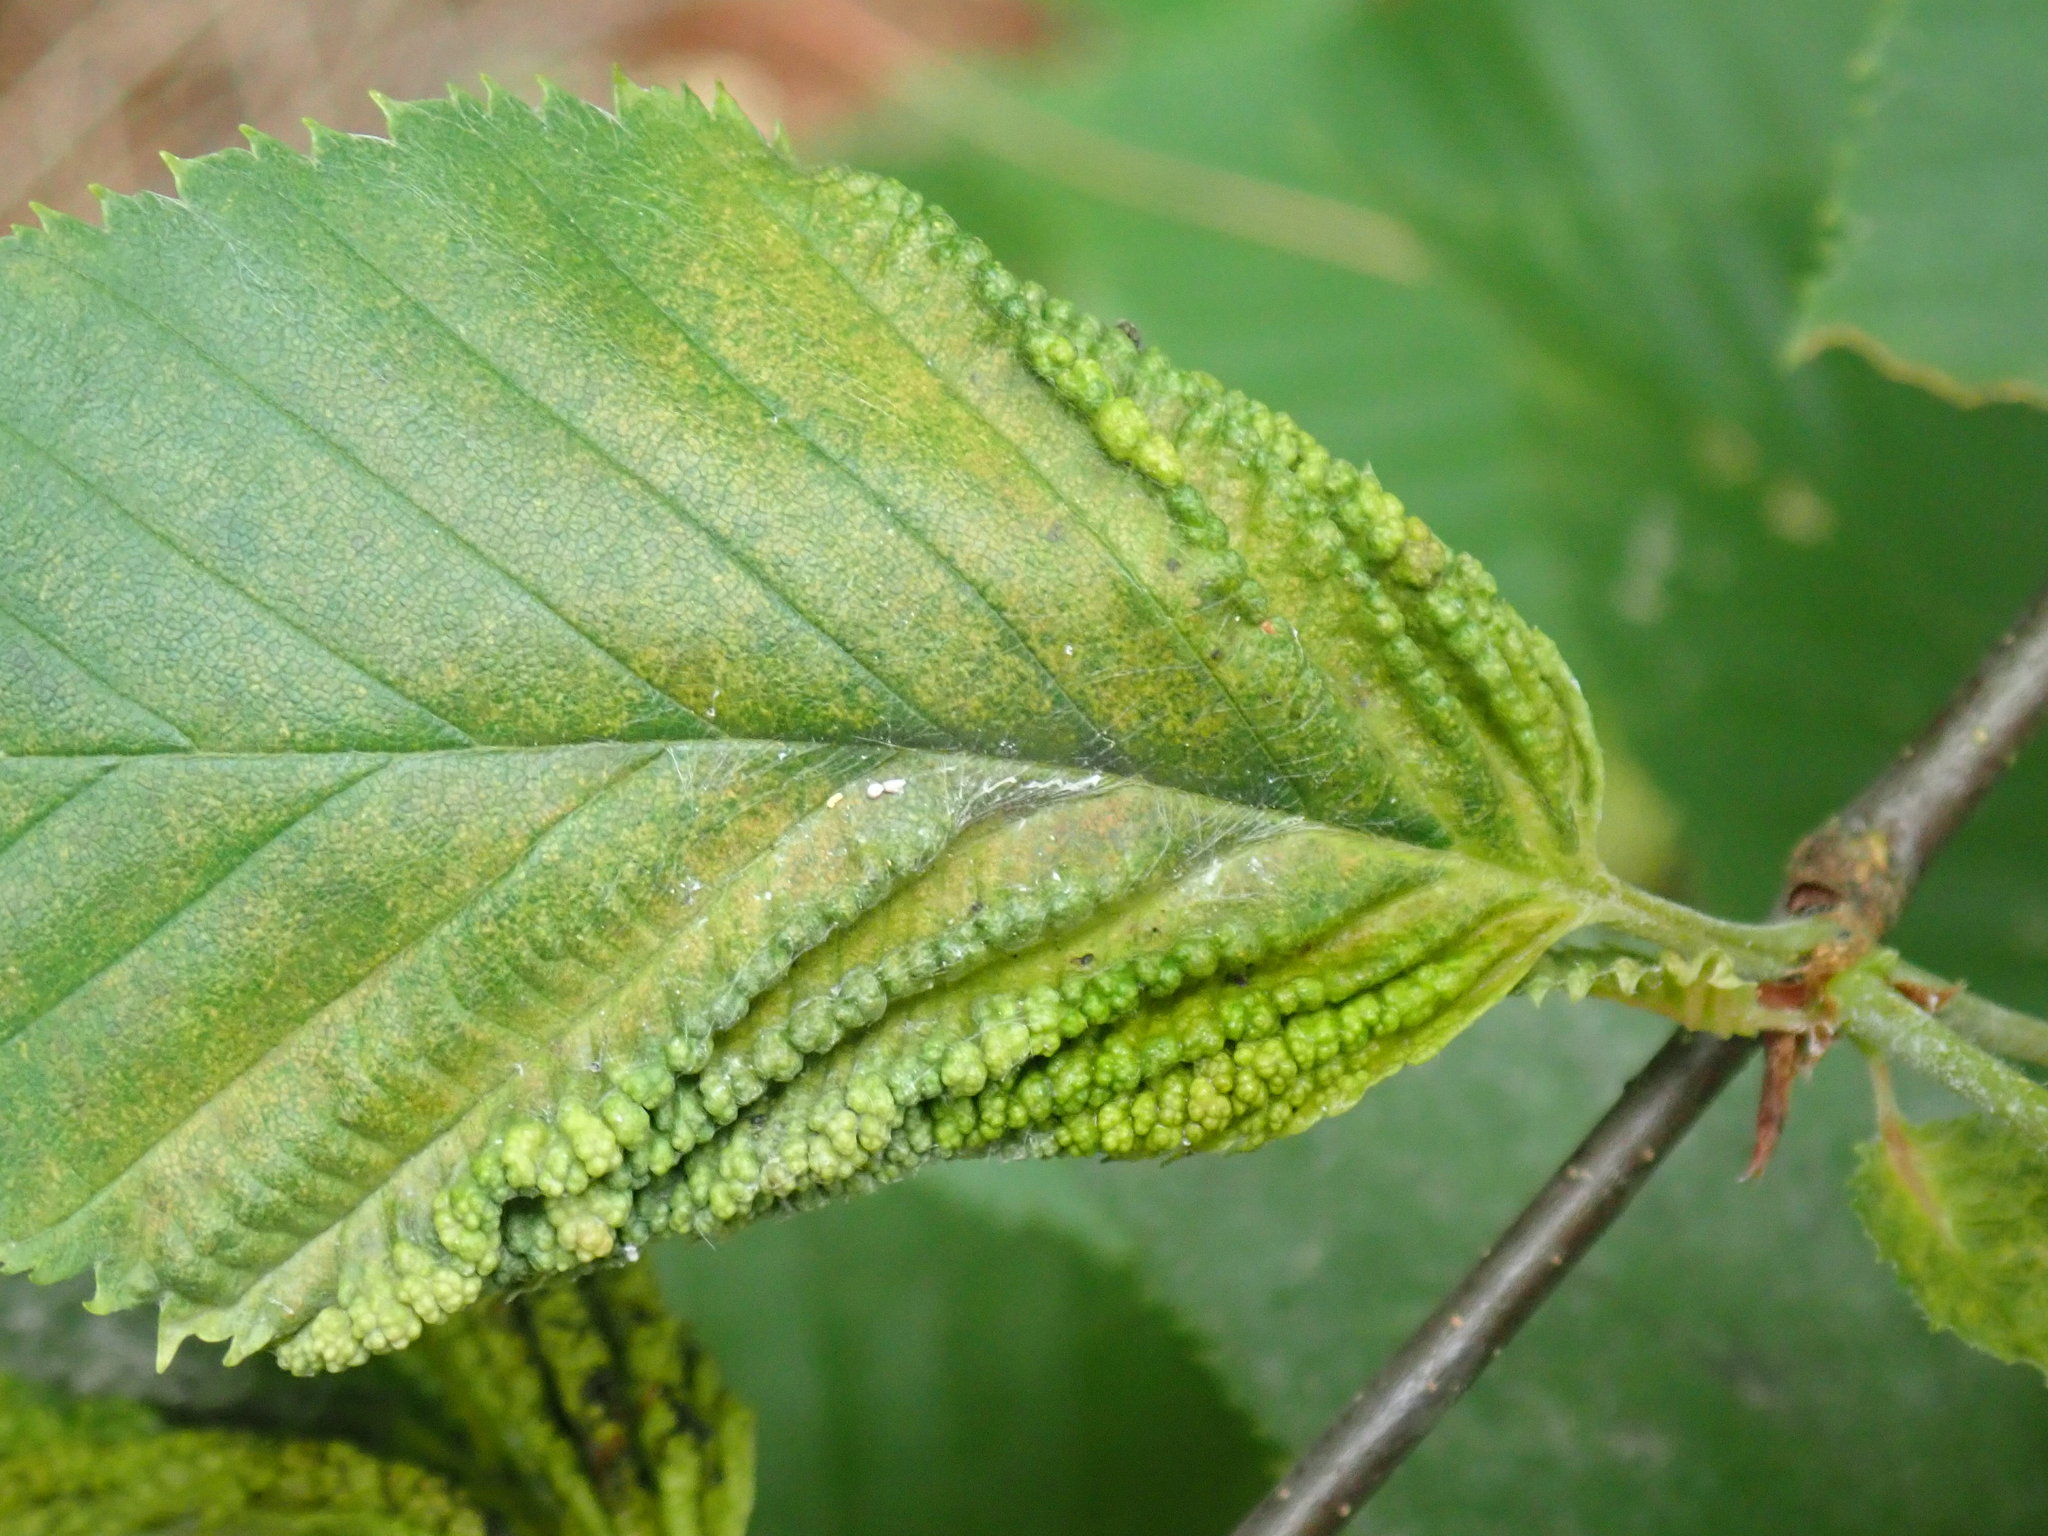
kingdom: Animalia
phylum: Arthropoda
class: Insecta
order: Hemiptera
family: Aphididae
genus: Hamamelistes
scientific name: Hamamelistes spinosus
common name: Witch hazel gall aphid
